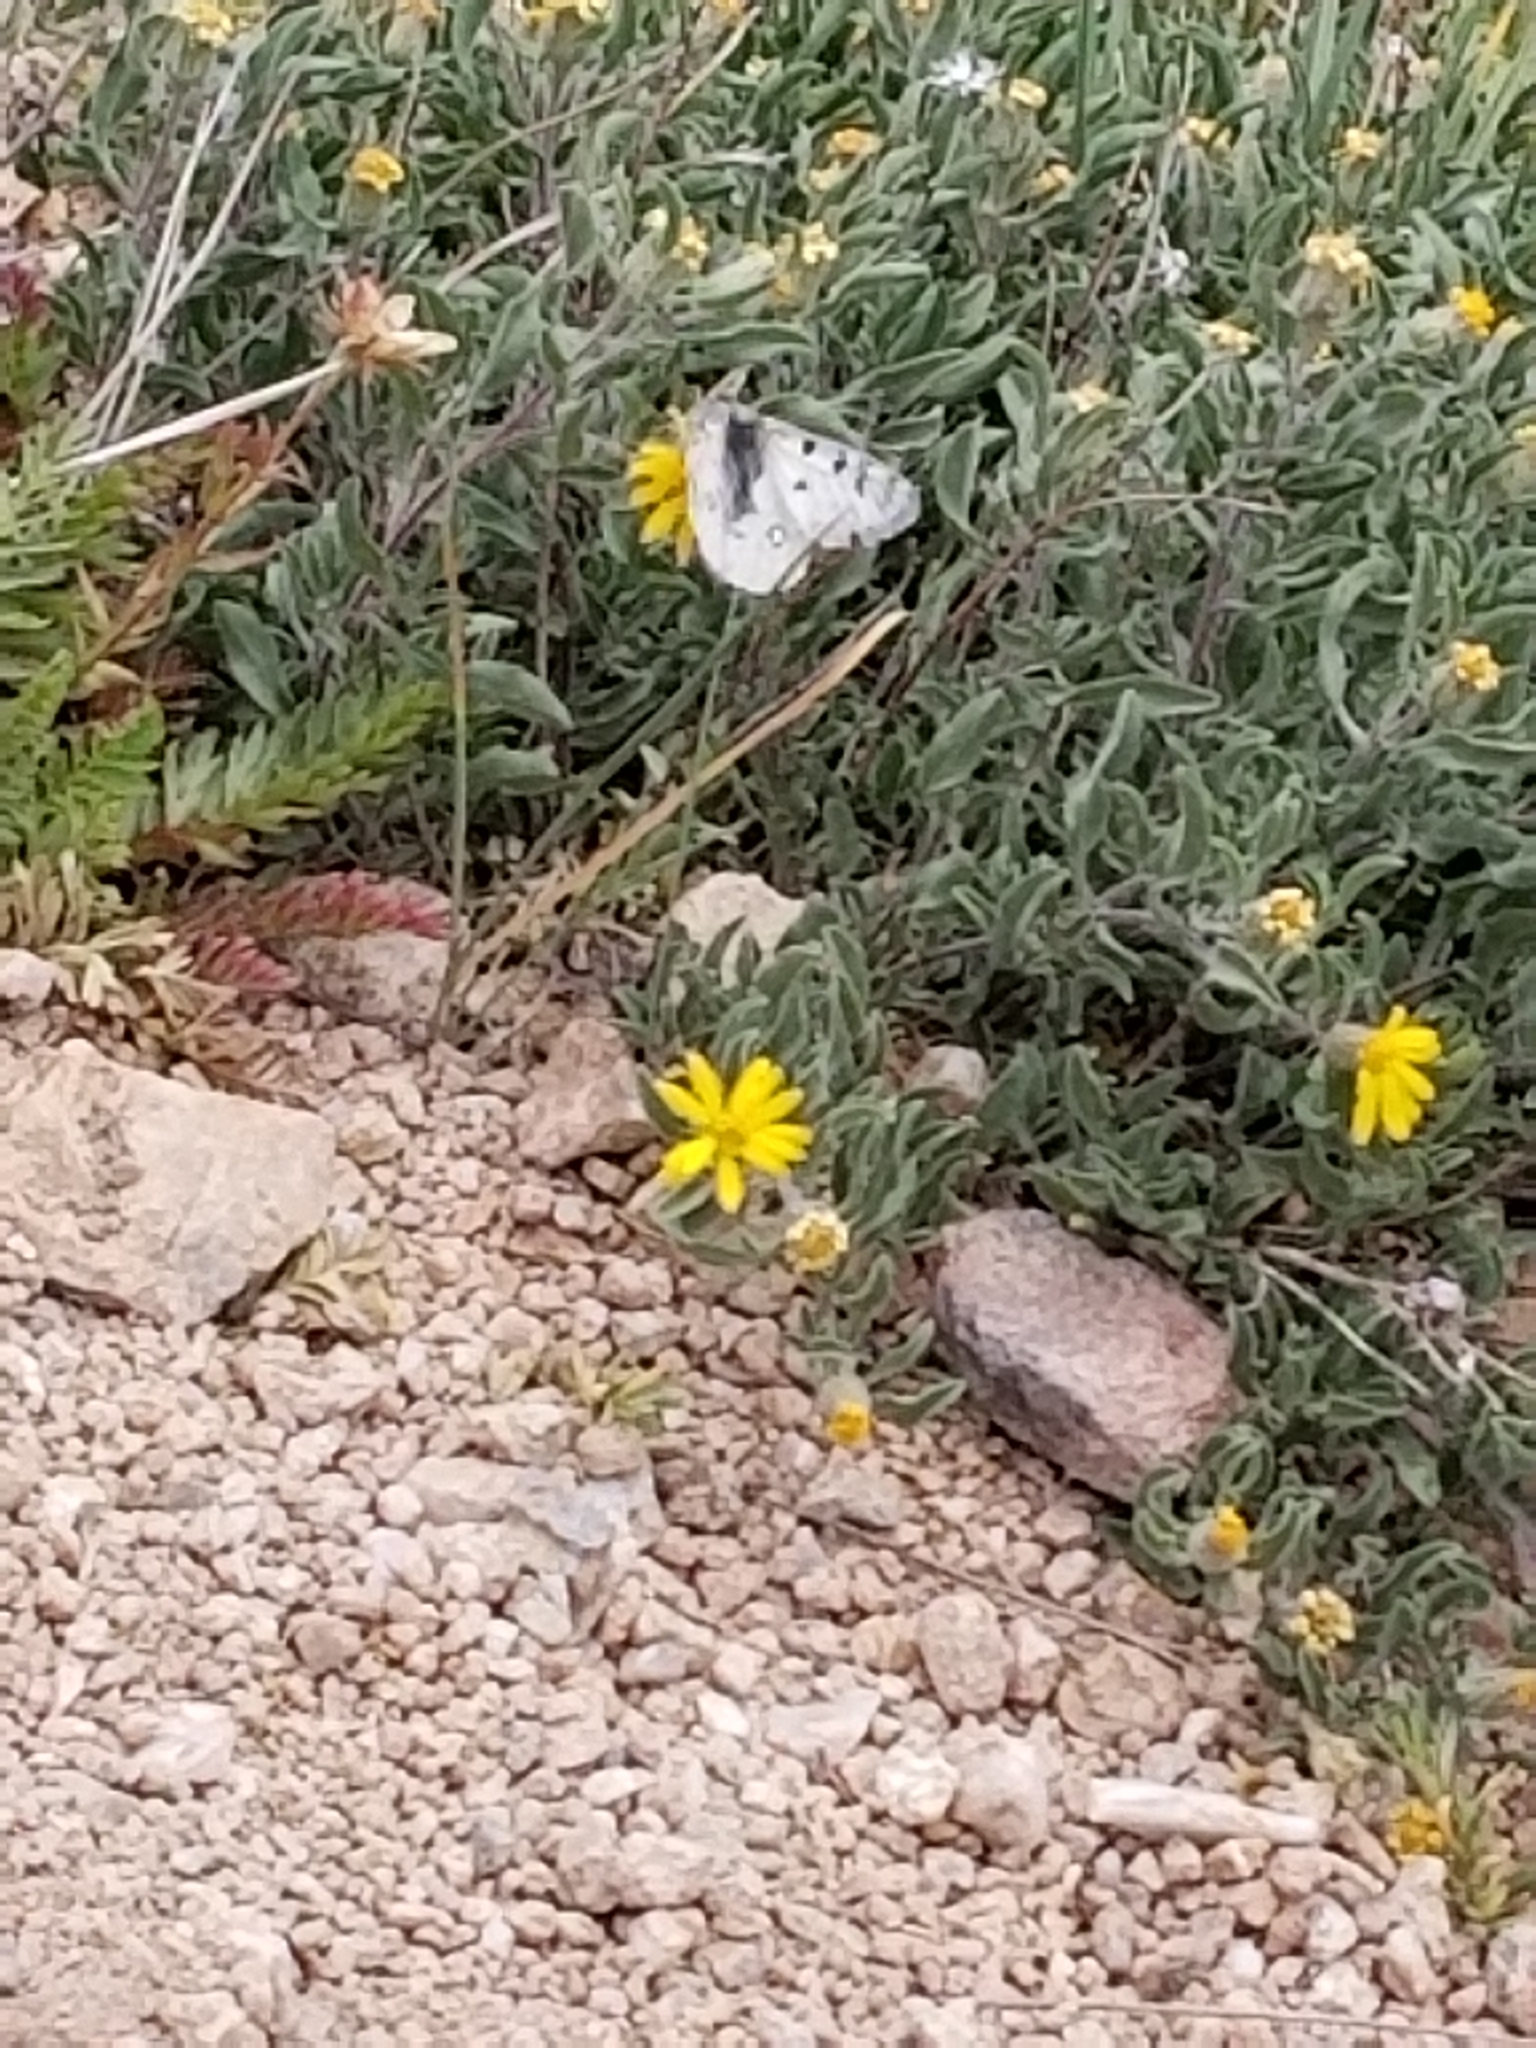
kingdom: Animalia
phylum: Arthropoda
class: Insecta
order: Lepidoptera
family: Papilionidae
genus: Parnassius
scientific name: Parnassius smintheus
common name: Mountain parnassian
